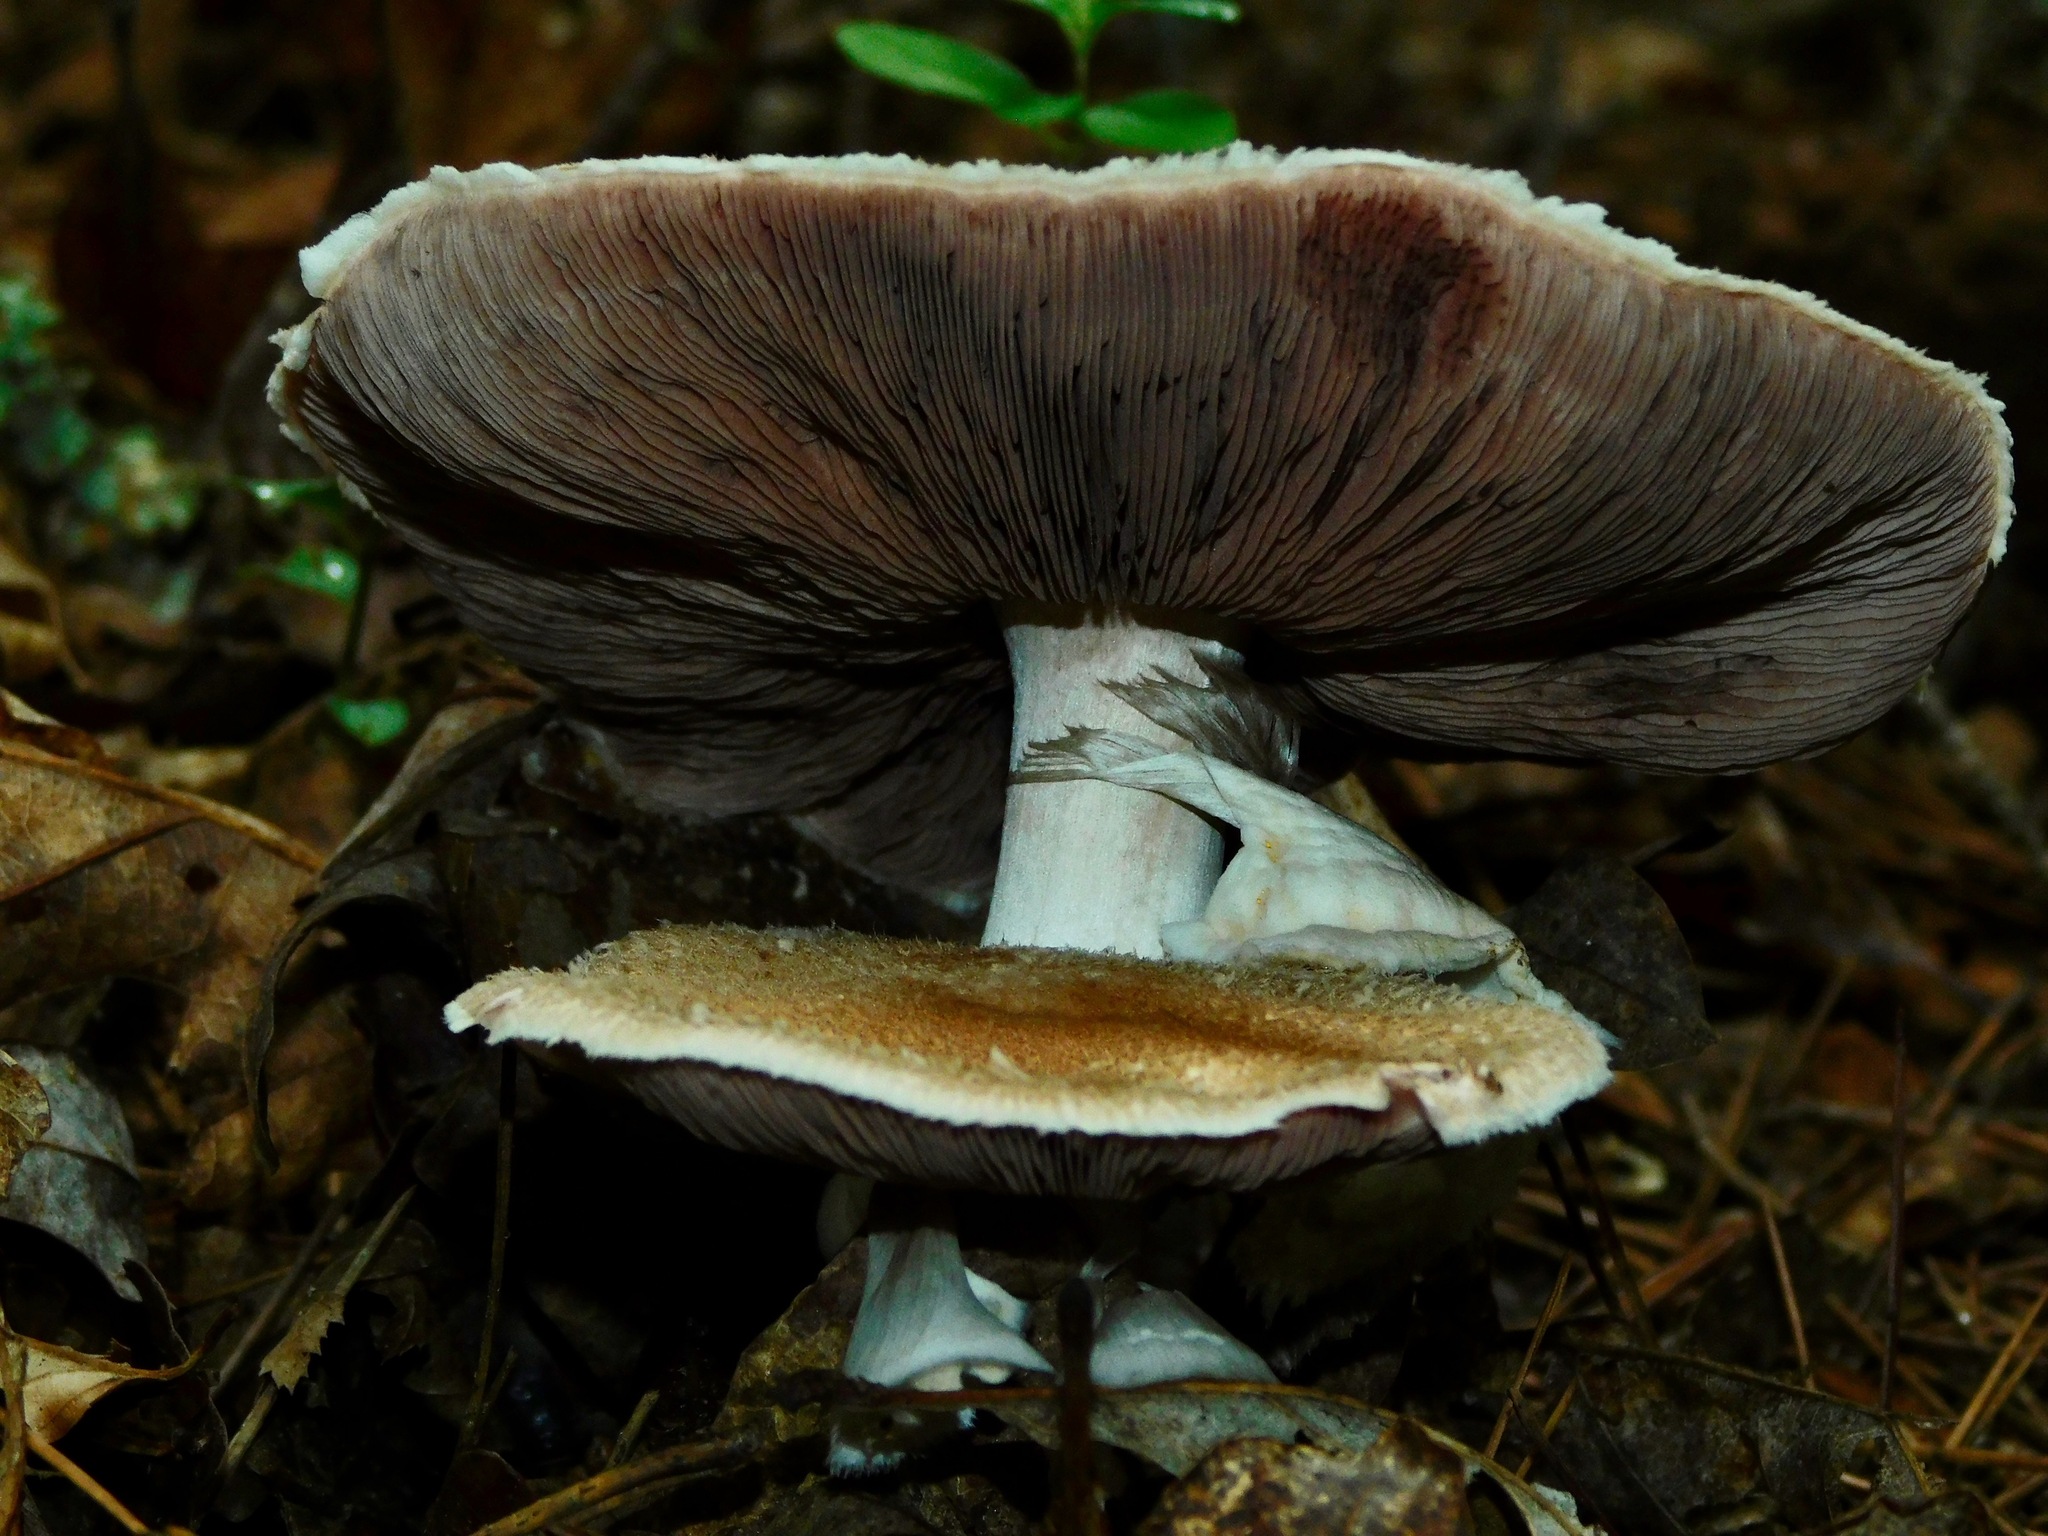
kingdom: Fungi
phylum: Basidiomycota
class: Agaricomycetes
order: Agaricales
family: Agaricaceae
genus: Agaricus
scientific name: Agaricus placomyces
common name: Inky mushroom
